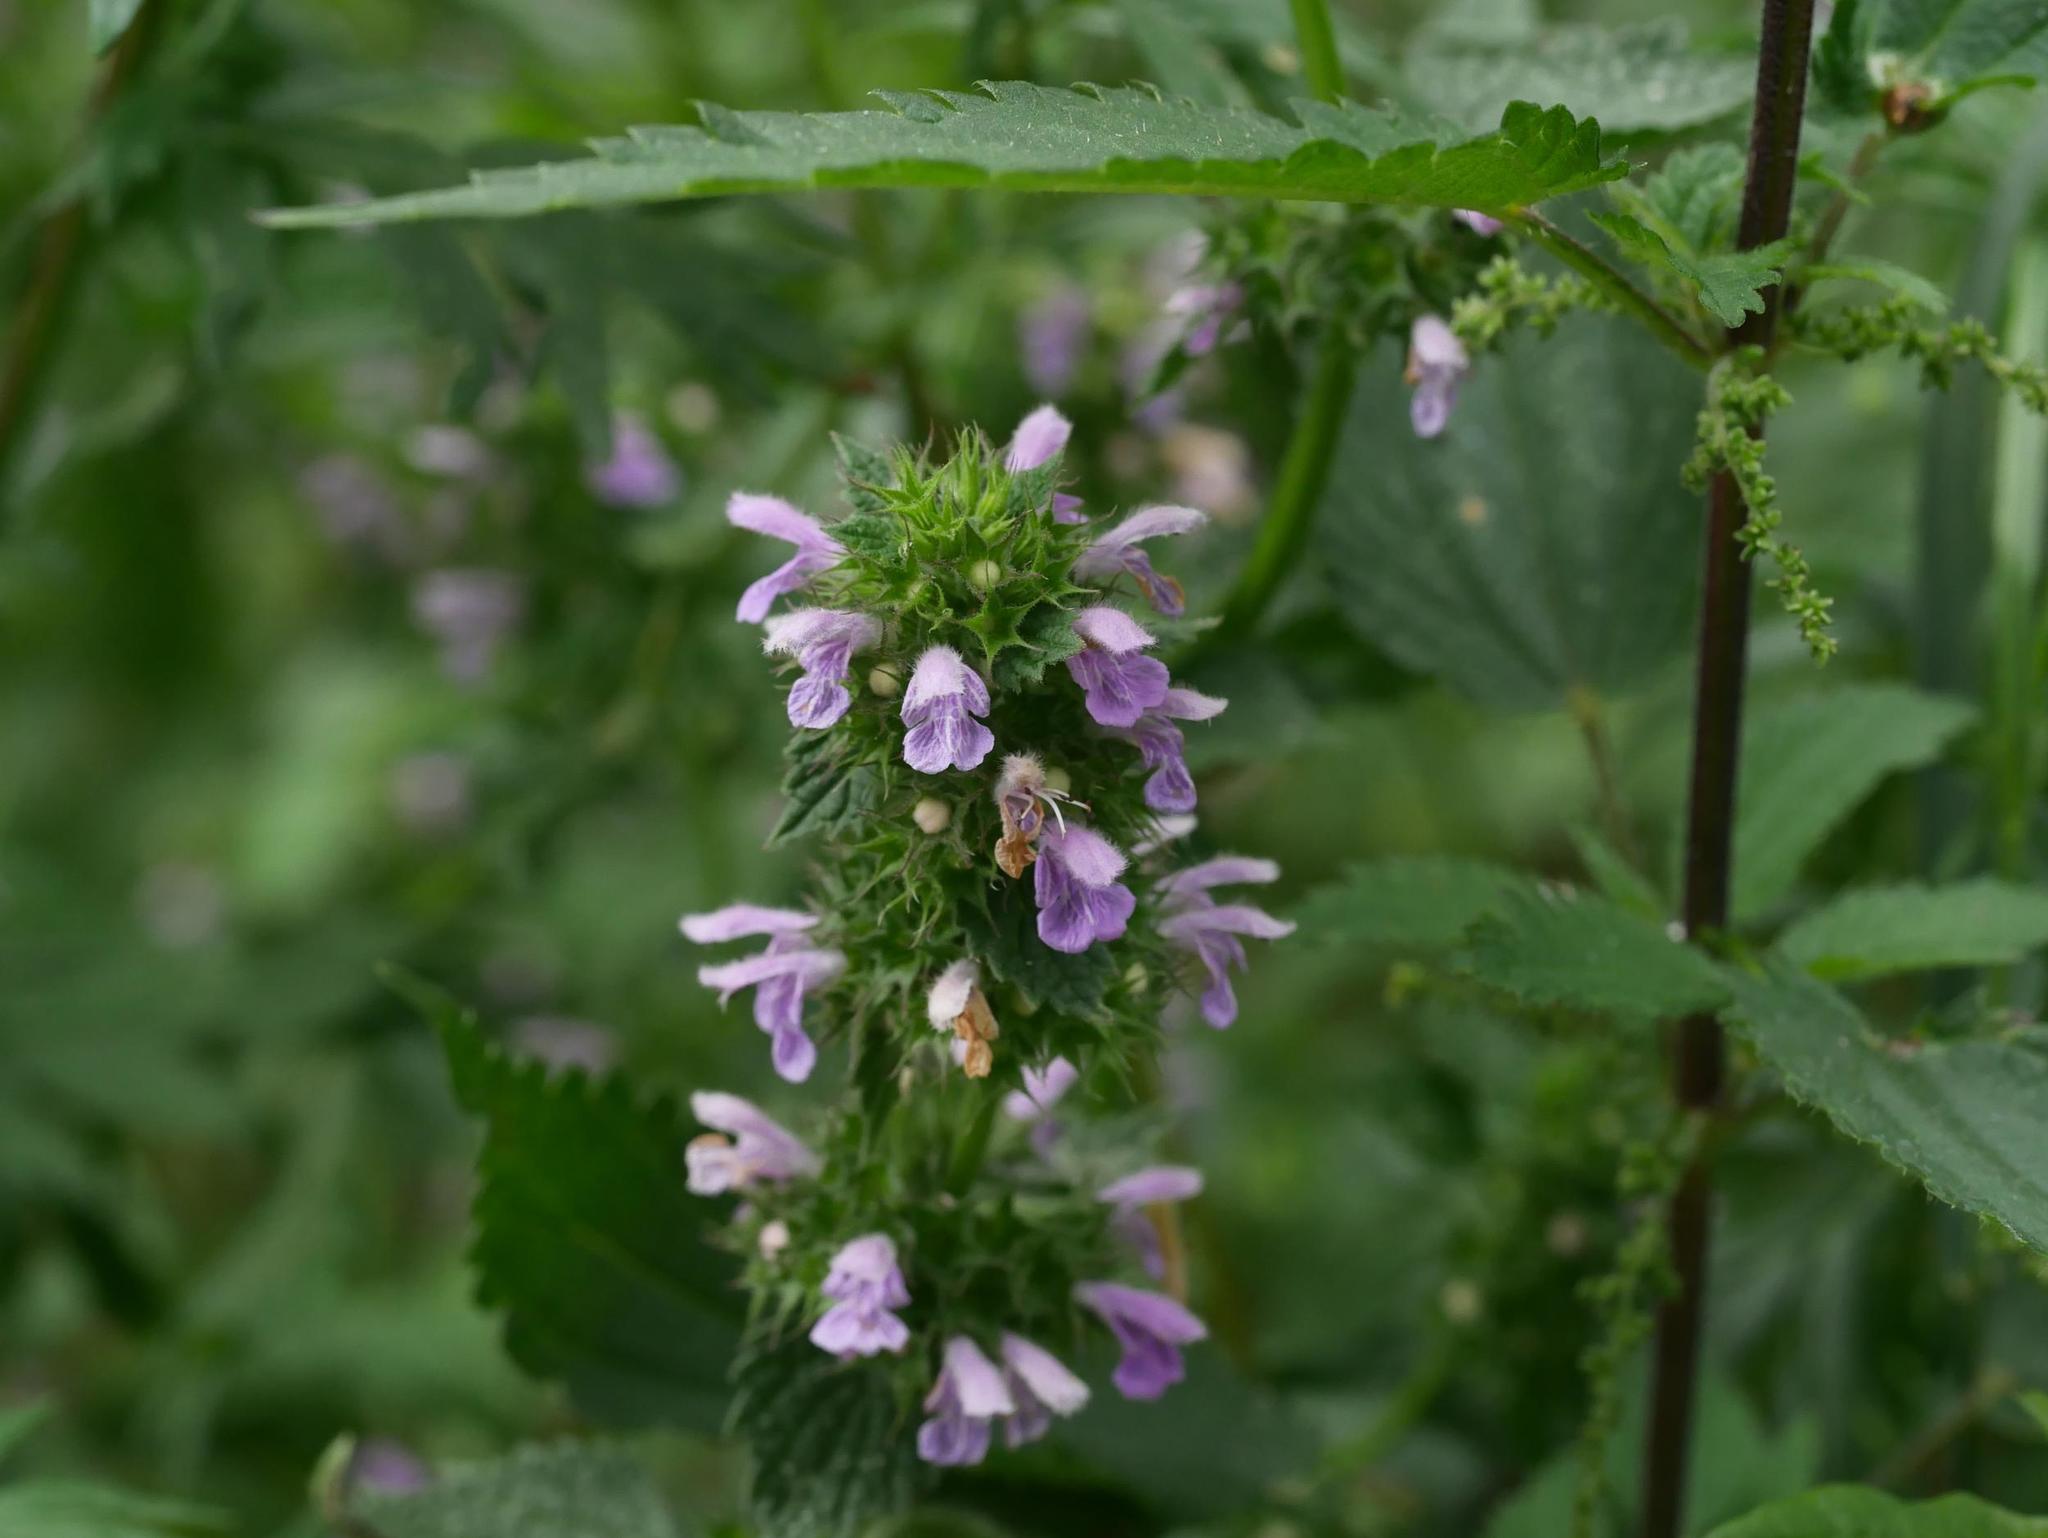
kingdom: Plantae
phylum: Tracheophyta
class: Magnoliopsida
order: Lamiales
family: Lamiaceae
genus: Ballota
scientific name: Ballota nigra
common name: Black horehound
